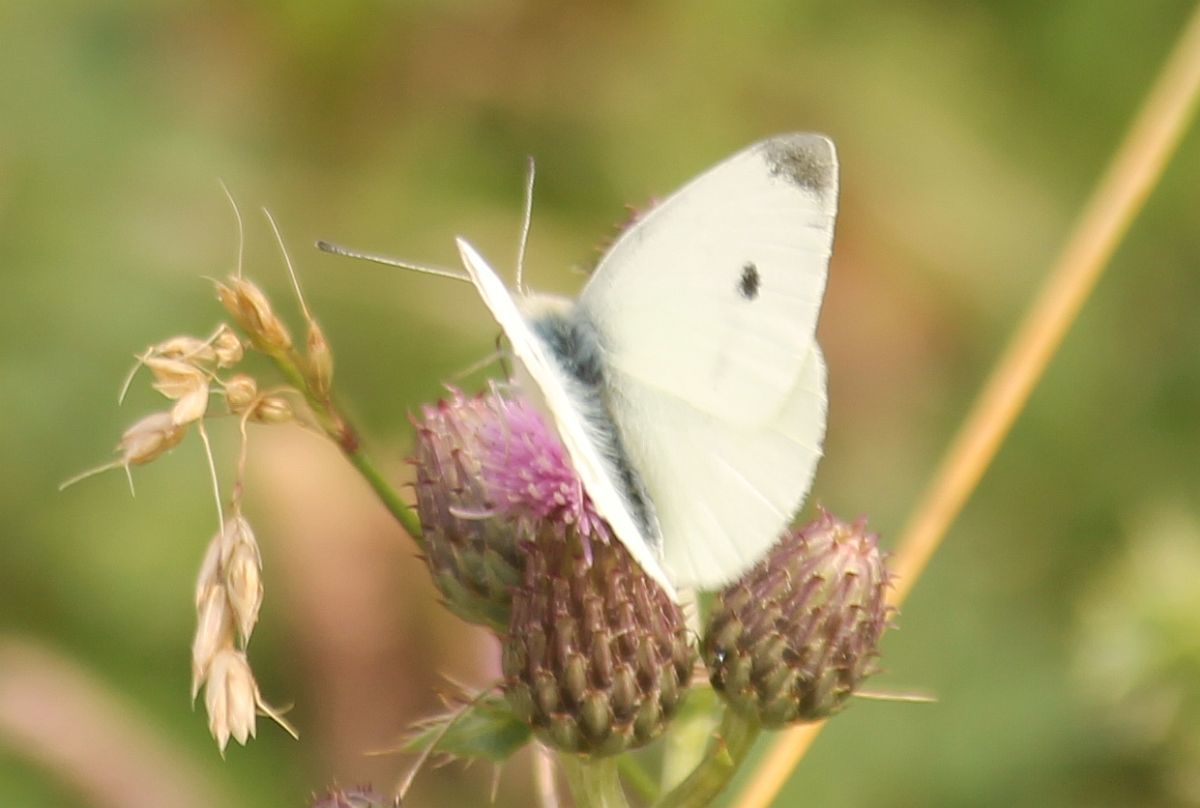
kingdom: Animalia
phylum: Arthropoda
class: Insecta
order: Lepidoptera
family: Pieridae
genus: Pieris
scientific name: Pieris rapae
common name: Small white
